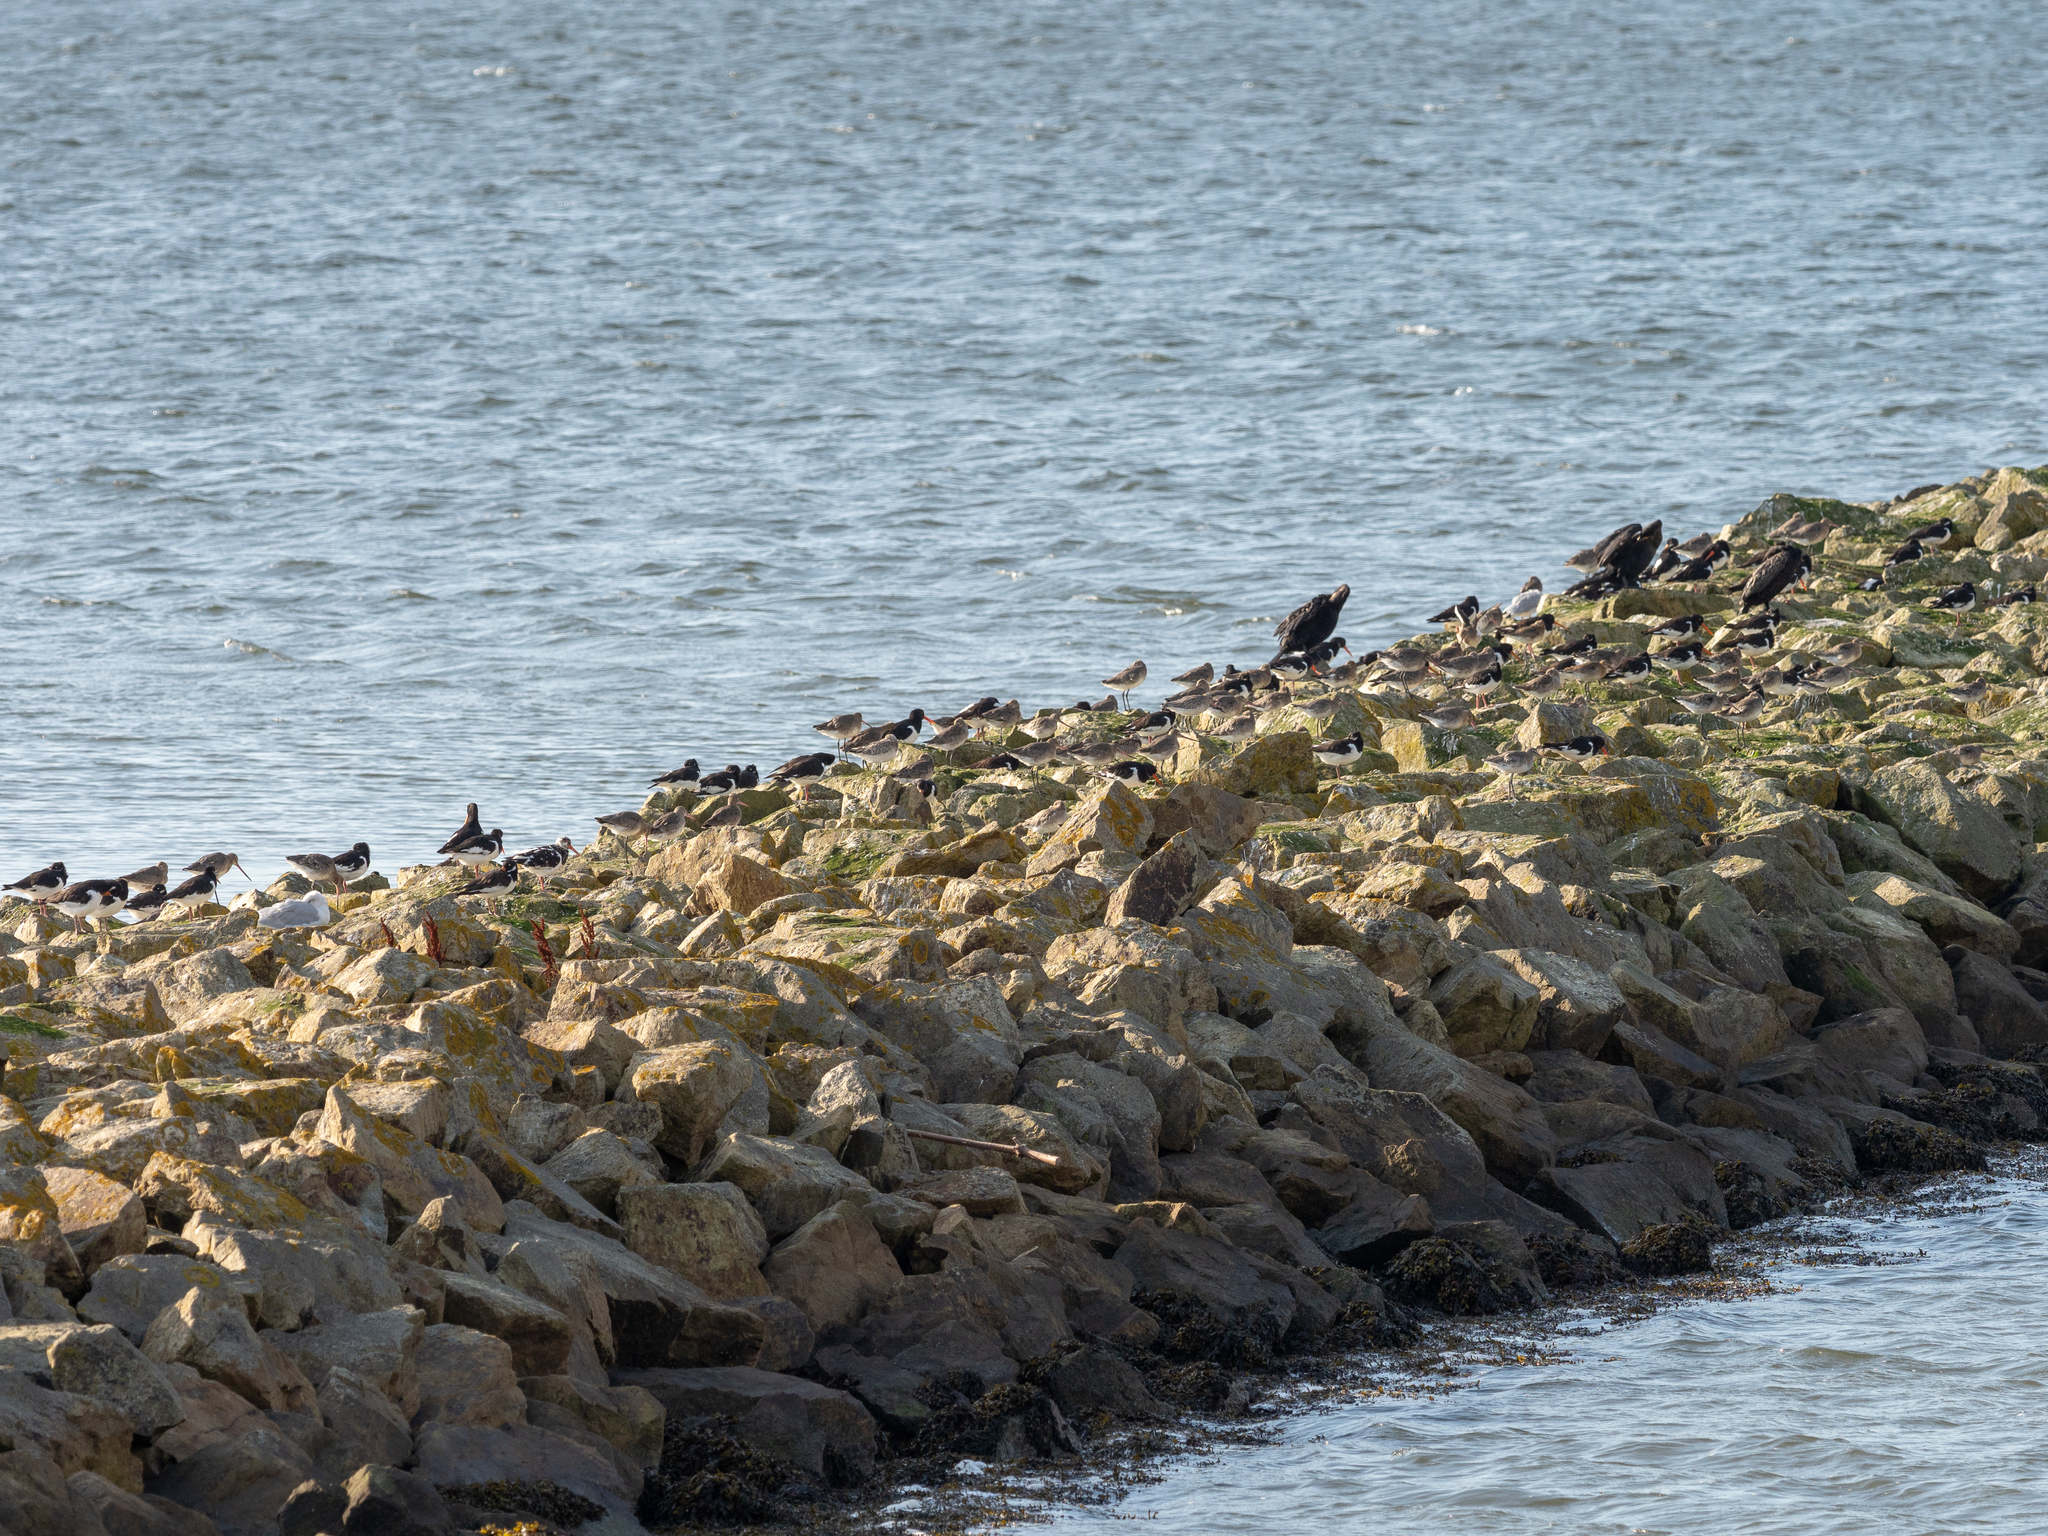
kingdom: Animalia
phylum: Chordata
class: Aves
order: Suliformes
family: Phalacrocoracidae
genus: Phalacrocorax
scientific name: Phalacrocorax carbo
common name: Great cormorant
